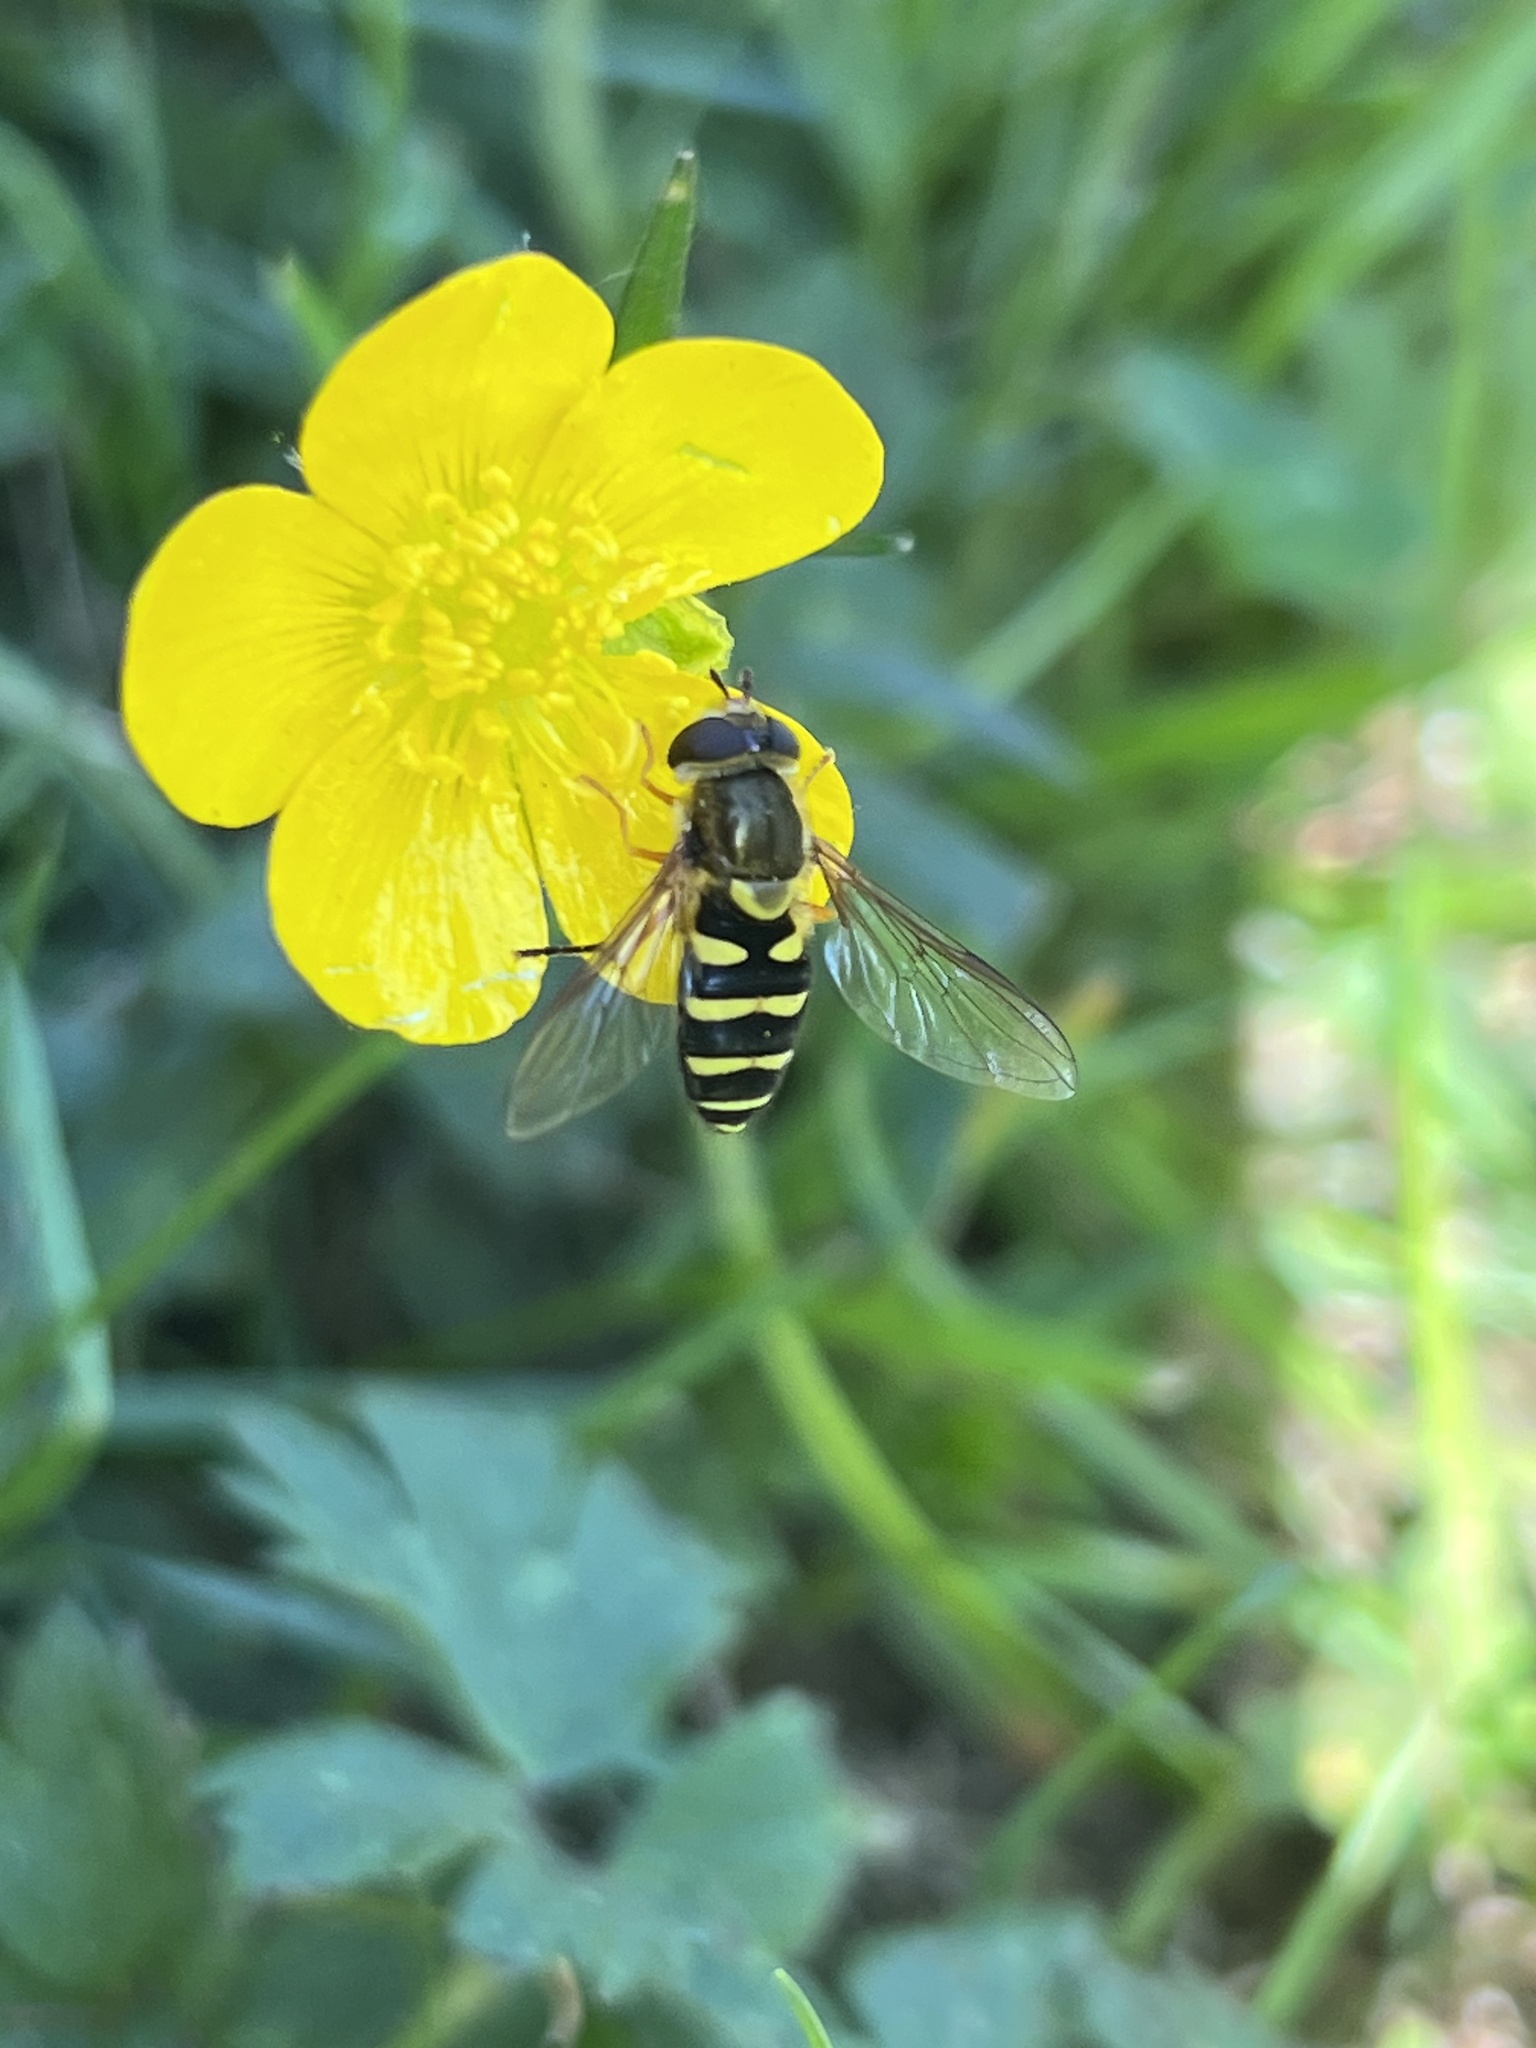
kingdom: Animalia
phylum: Arthropoda
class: Insecta
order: Diptera
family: Syrphidae
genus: Syrphus
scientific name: Syrphus opinator
